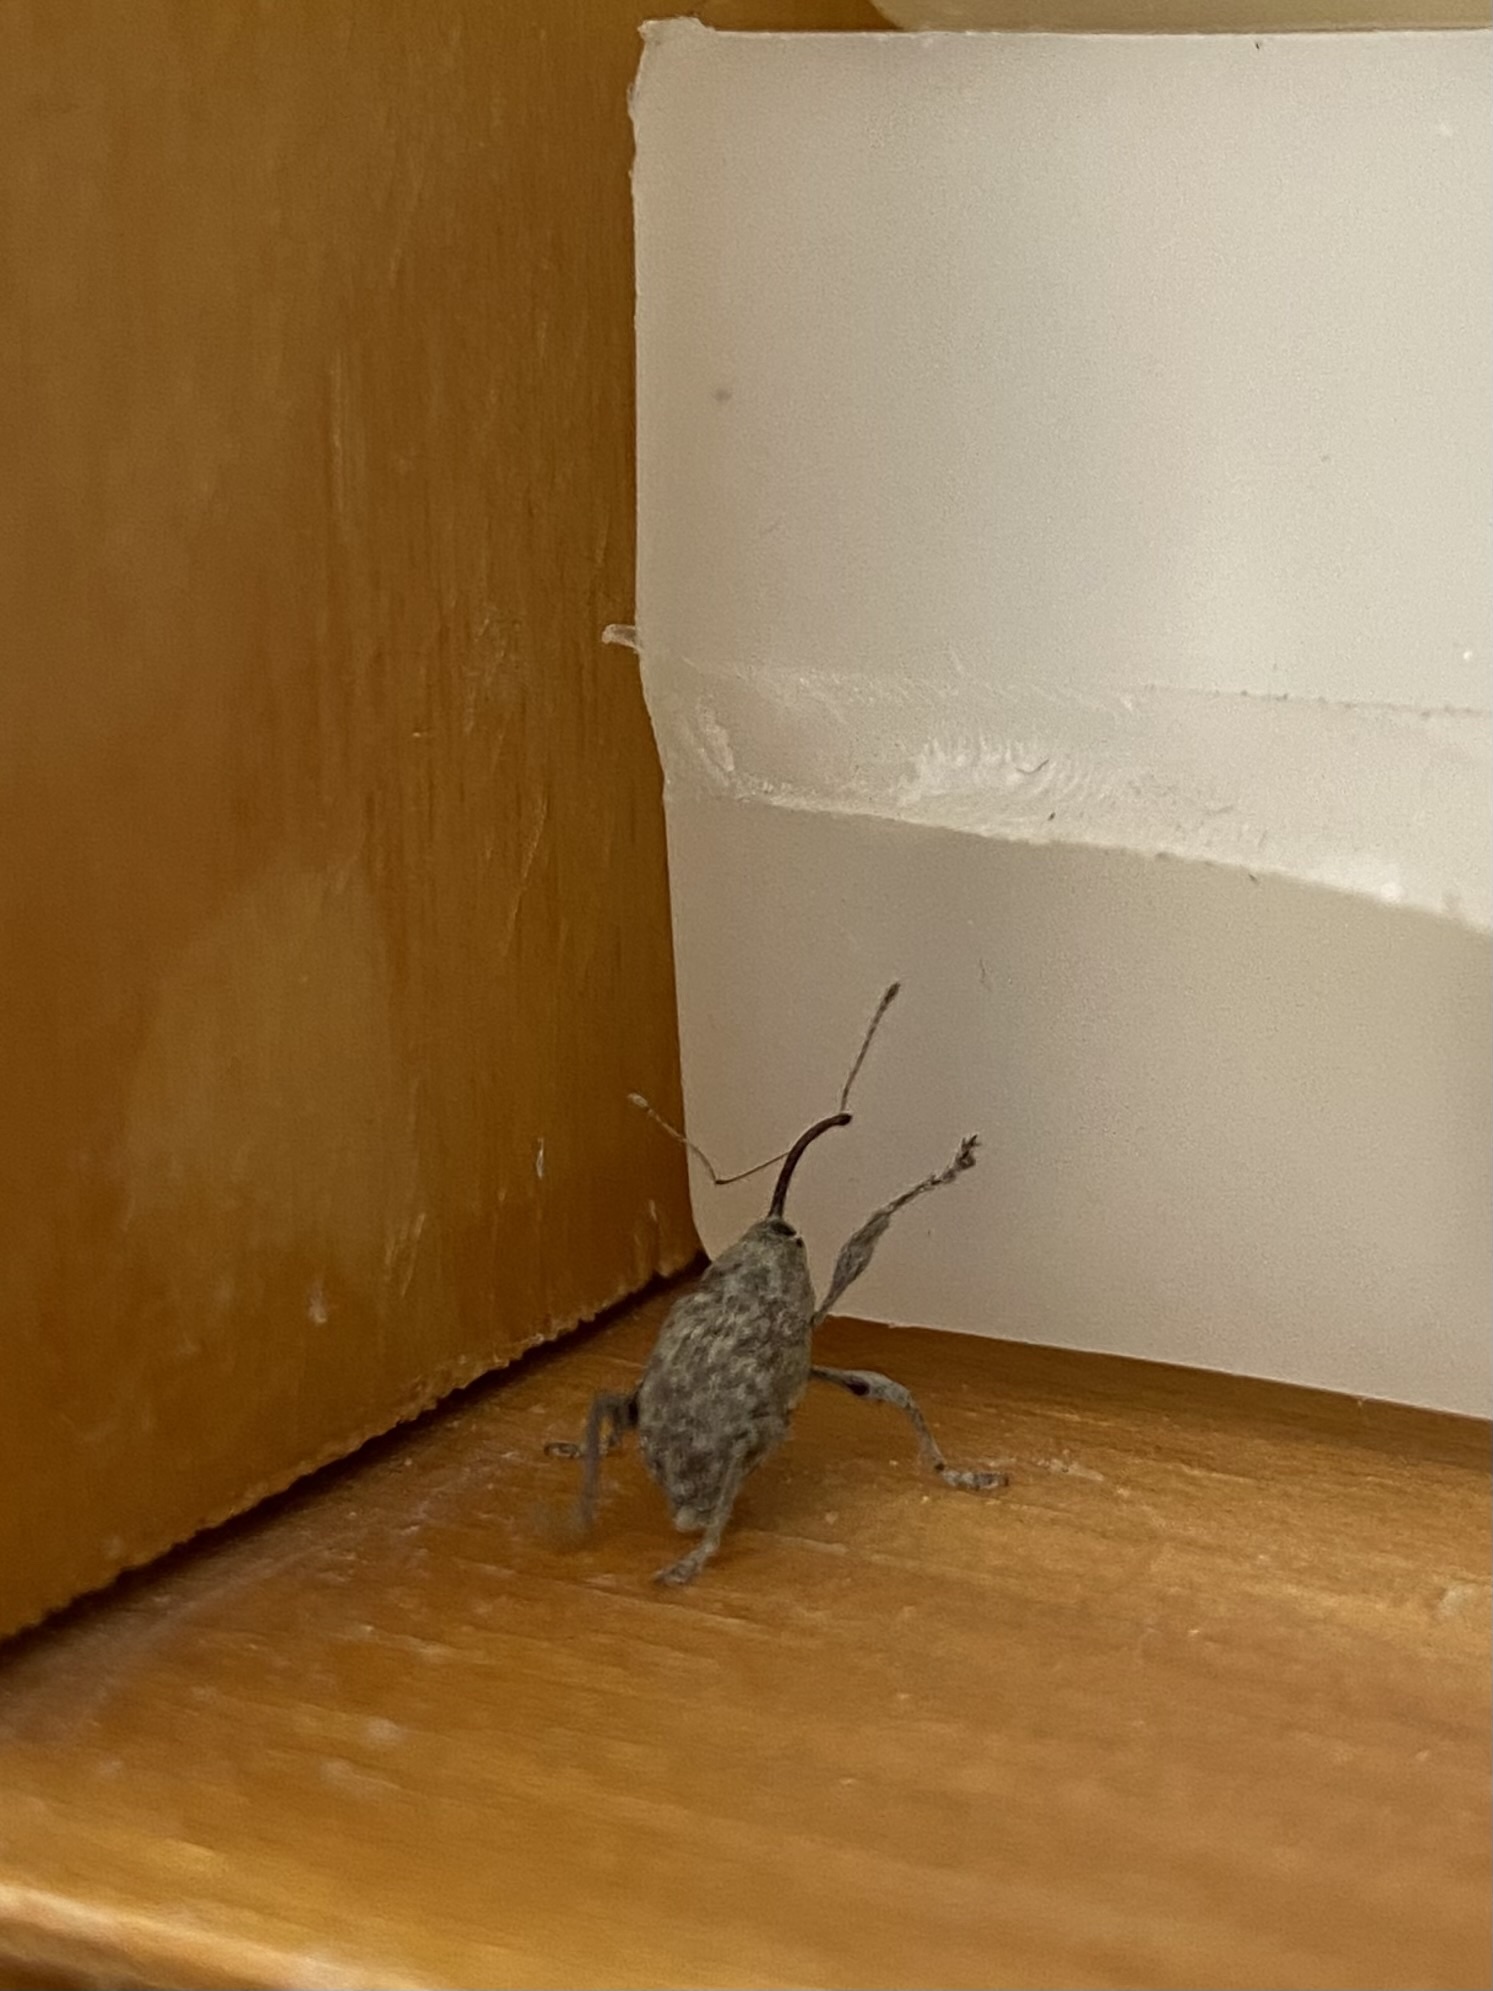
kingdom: Animalia
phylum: Arthropoda
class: Insecta
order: Coleoptera
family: Curculionidae
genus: Curculio
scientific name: Curculio
